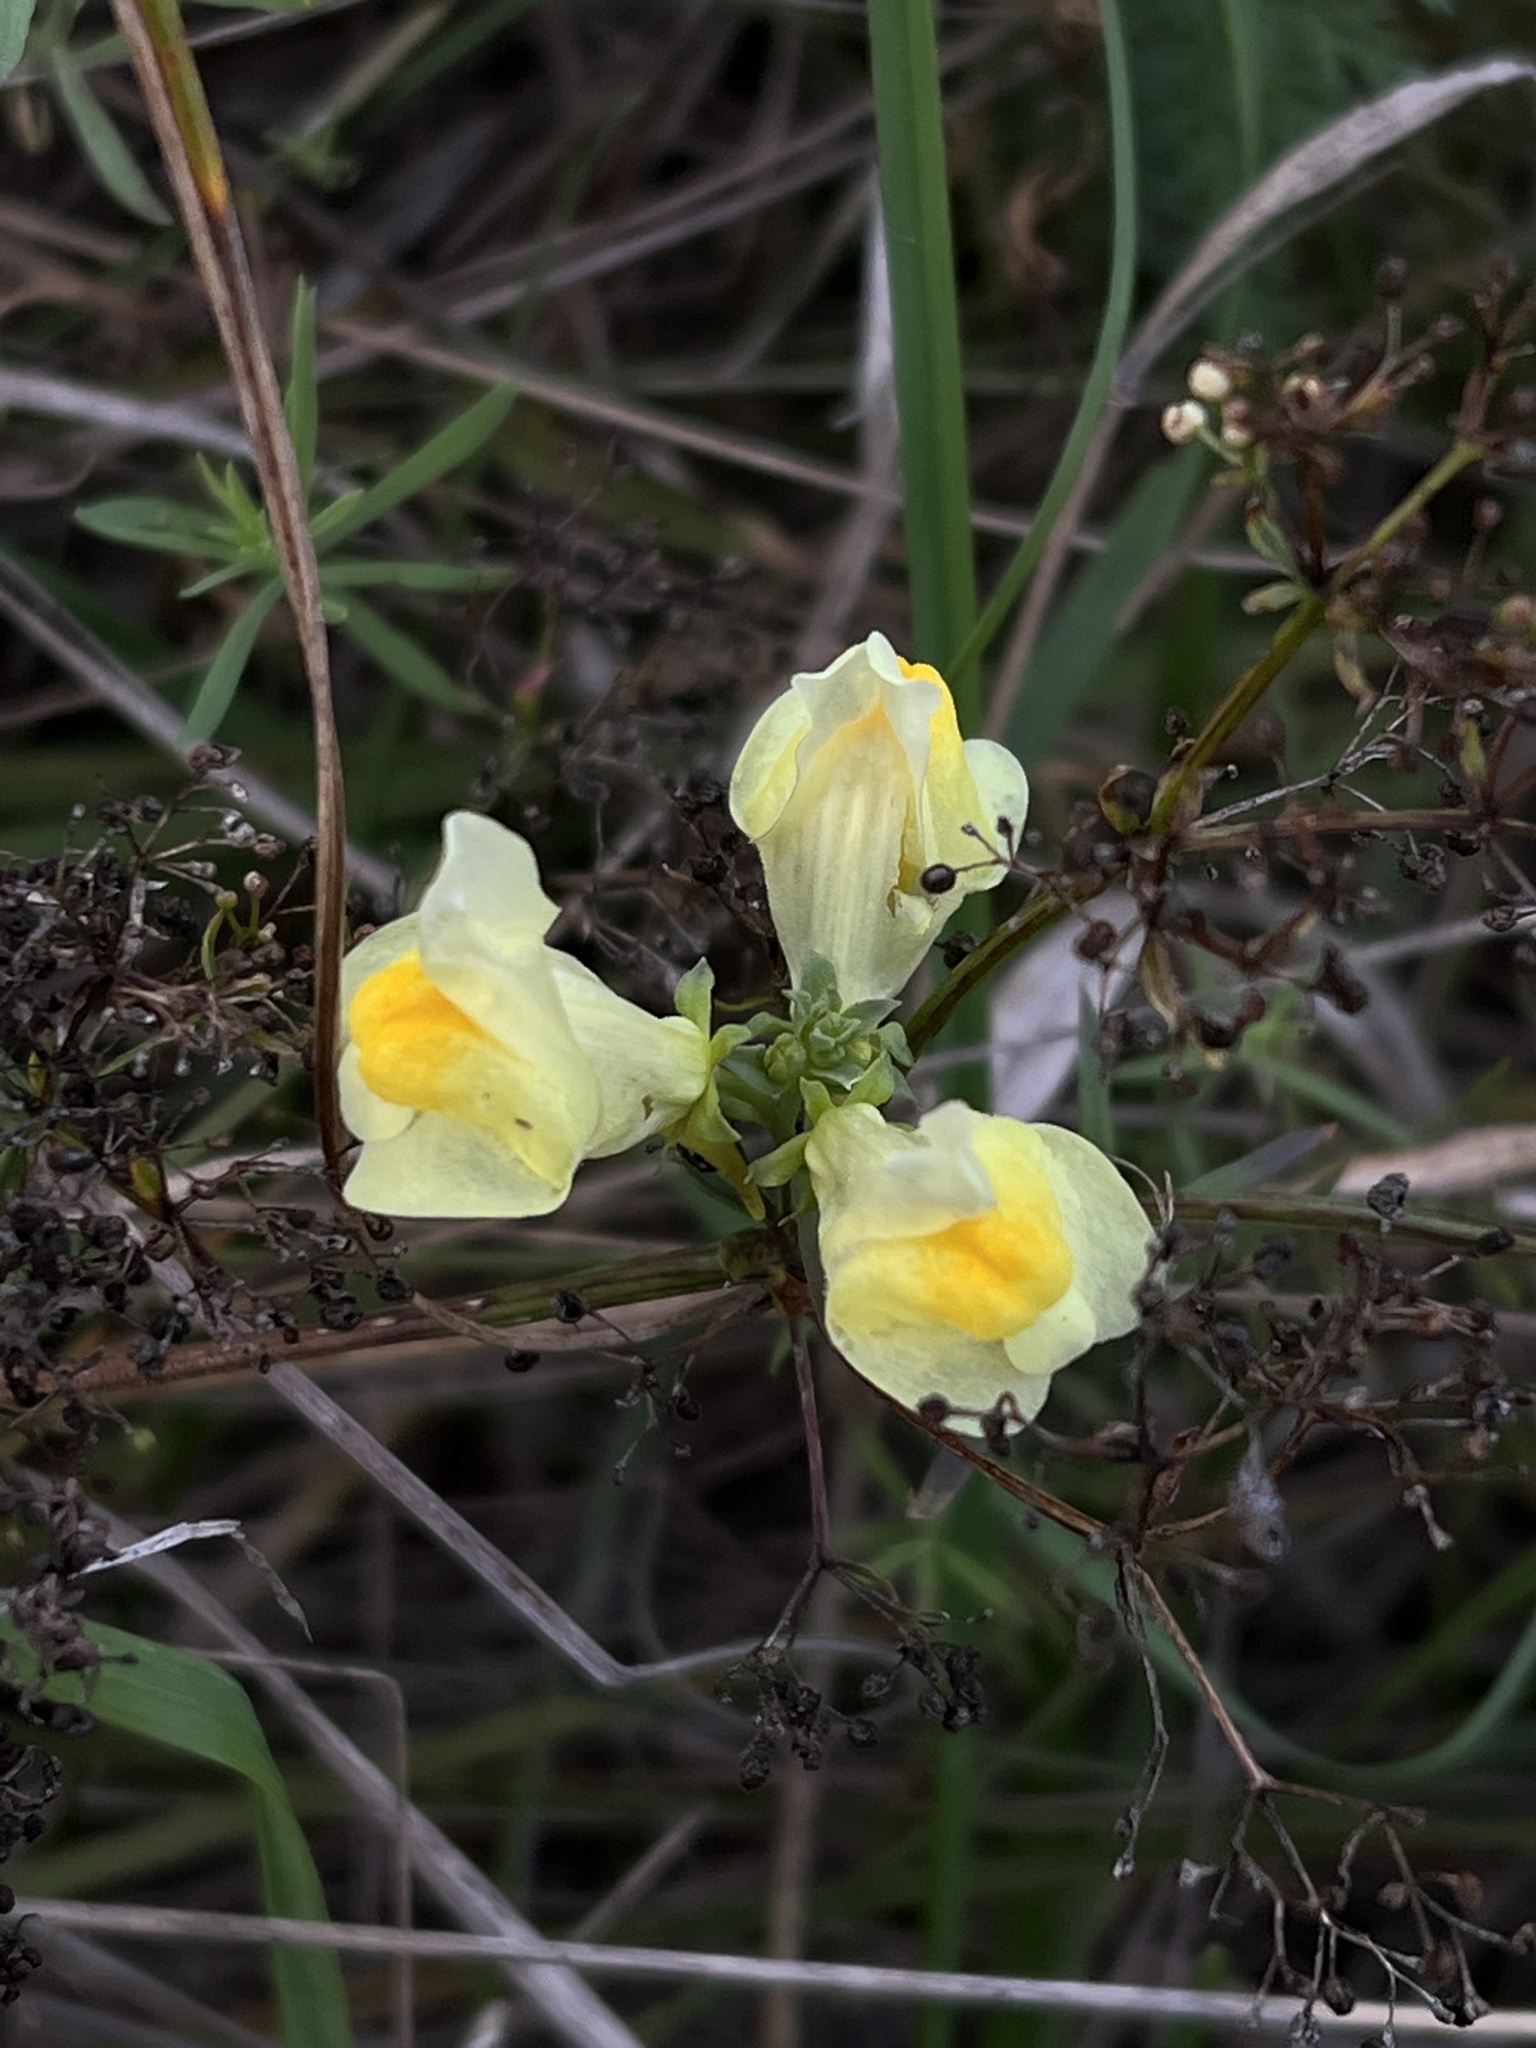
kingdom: Plantae
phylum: Tracheophyta
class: Magnoliopsida
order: Lamiales
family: Plantaginaceae
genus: Linaria
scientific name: Linaria vulgaris
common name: Butter and eggs
